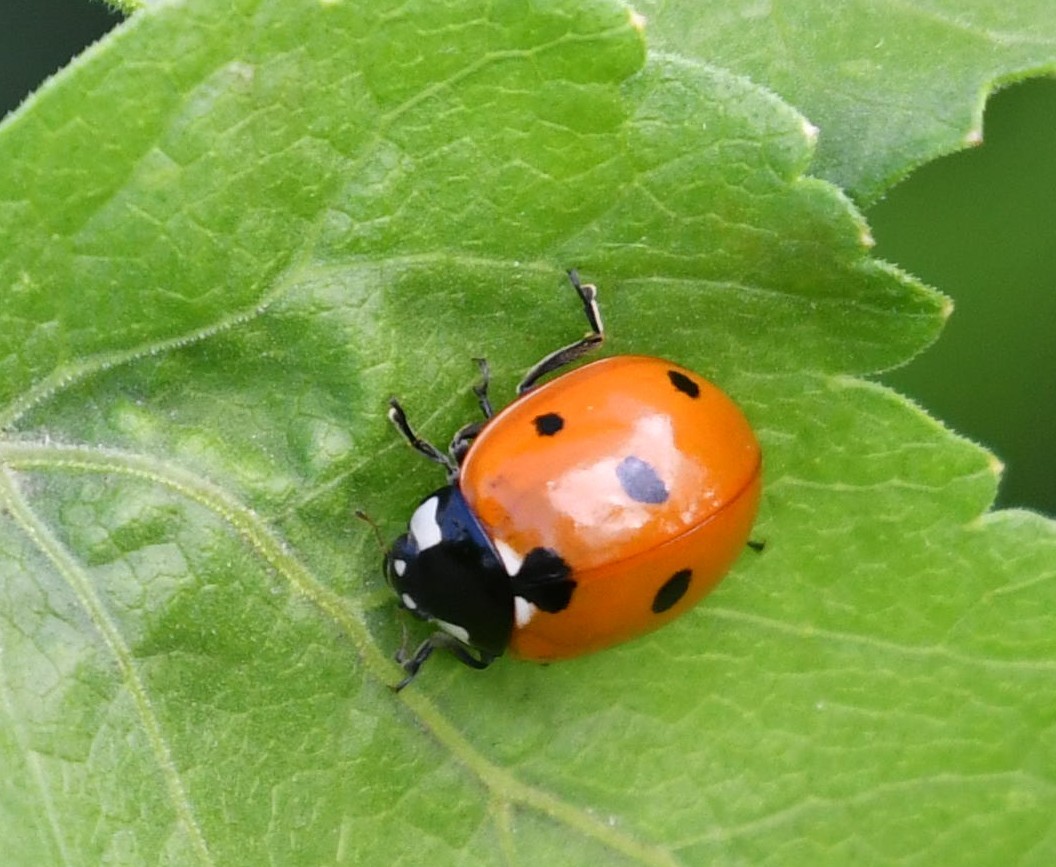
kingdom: Animalia
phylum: Arthropoda
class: Insecta
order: Coleoptera
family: Coccinellidae
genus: Coccinella
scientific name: Coccinella septempunctata
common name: Sevenspotted lady beetle
